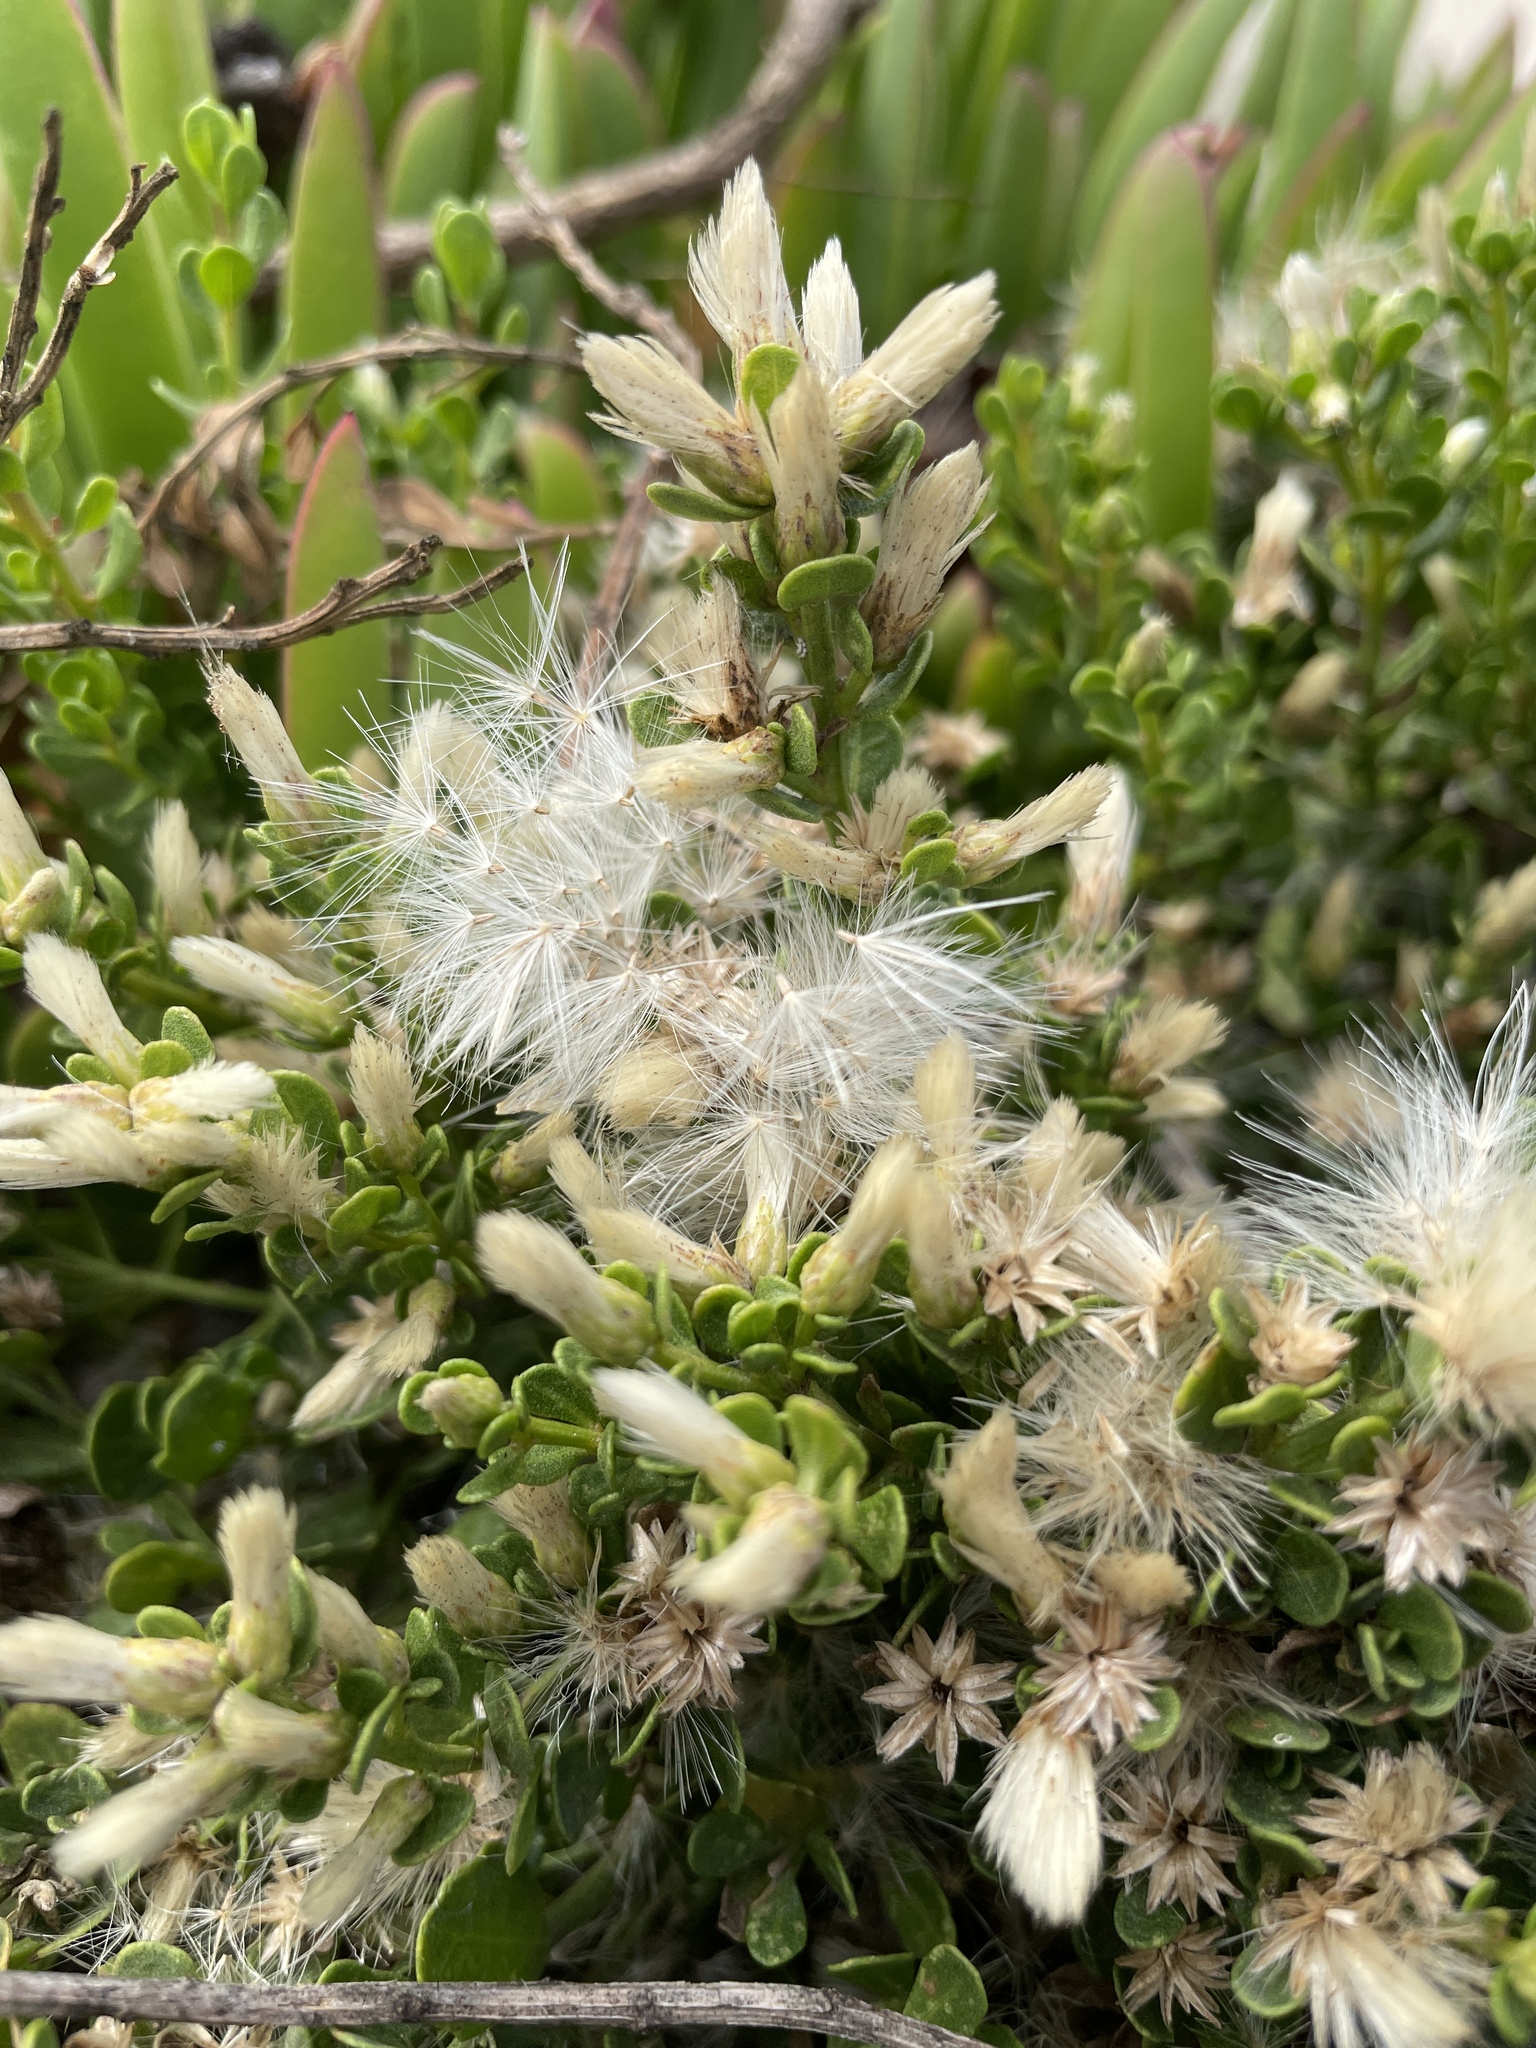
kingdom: Plantae
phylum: Tracheophyta
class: Magnoliopsida
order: Asterales
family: Asteraceae
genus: Baccharis
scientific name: Baccharis pilularis
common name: Coyotebrush
